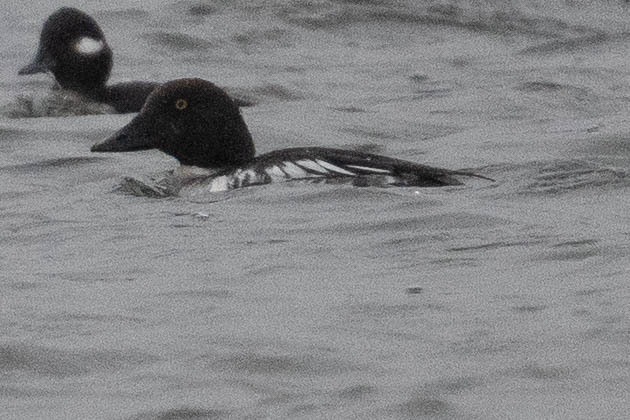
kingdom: Animalia
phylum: Chordata
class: Aves
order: Anseriformes
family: Anatidae
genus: Bucephala
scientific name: Bucephala clangula
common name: Common goldeneye
